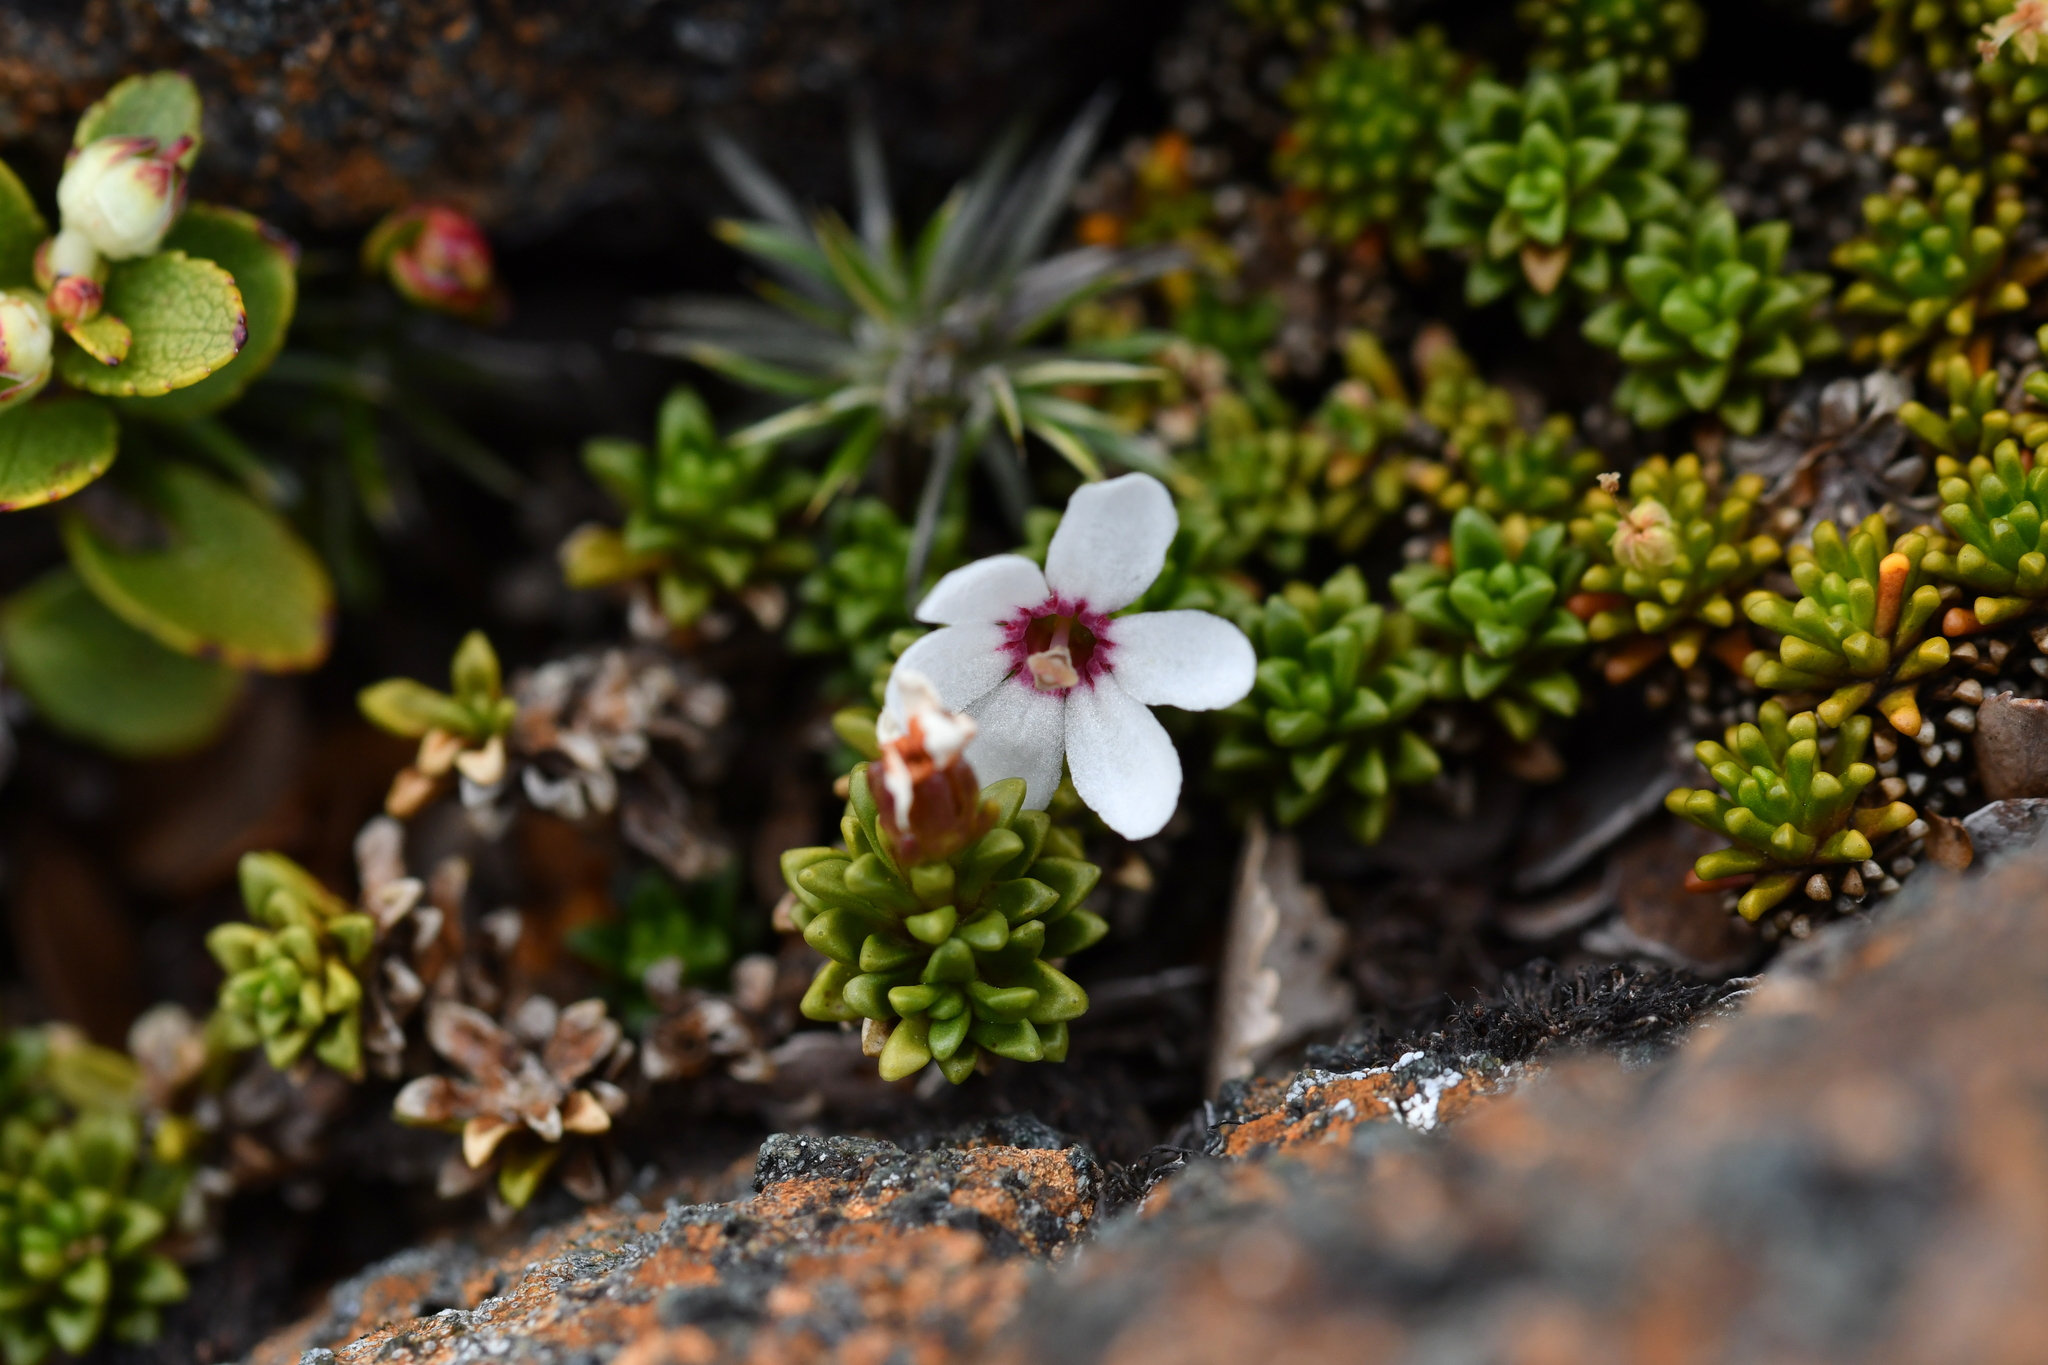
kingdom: Plantae
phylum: Tracheophyta
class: Magnoliopsida
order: Asterales
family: Stylidiaceae
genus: Forstera
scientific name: Forstera sedifolia
